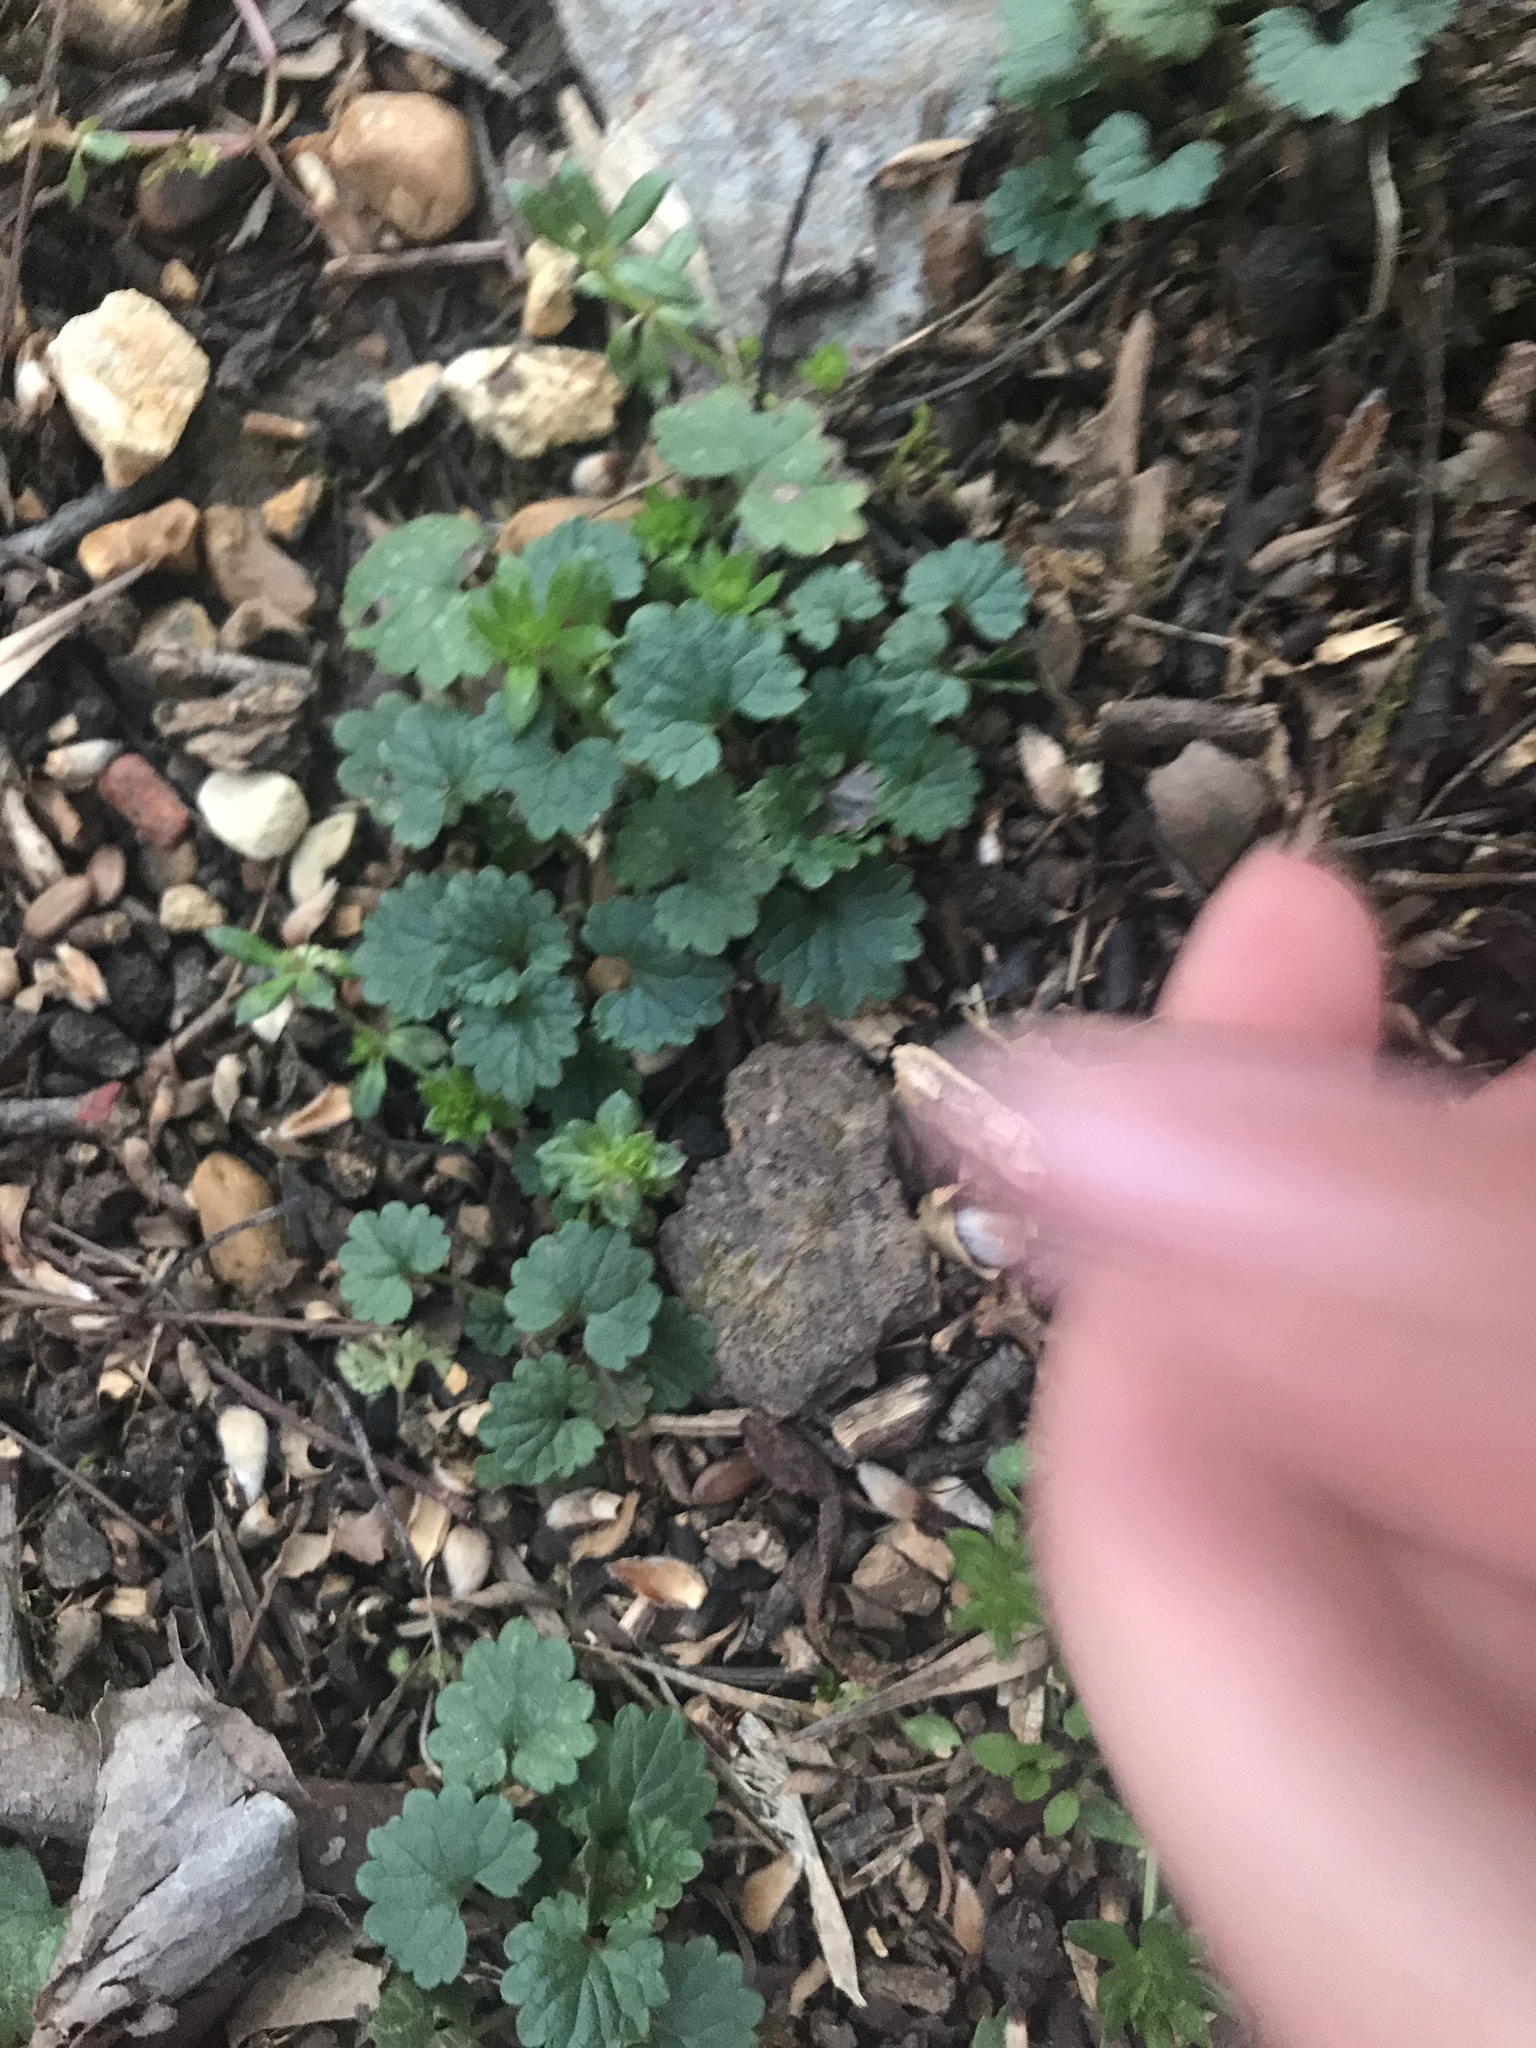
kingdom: Plantae
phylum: Tracheophyta
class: Magnoliopsida
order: Lamiales
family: Lamiaceae
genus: Glechoma
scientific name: Glechoma hederacea
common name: Ground ivy
